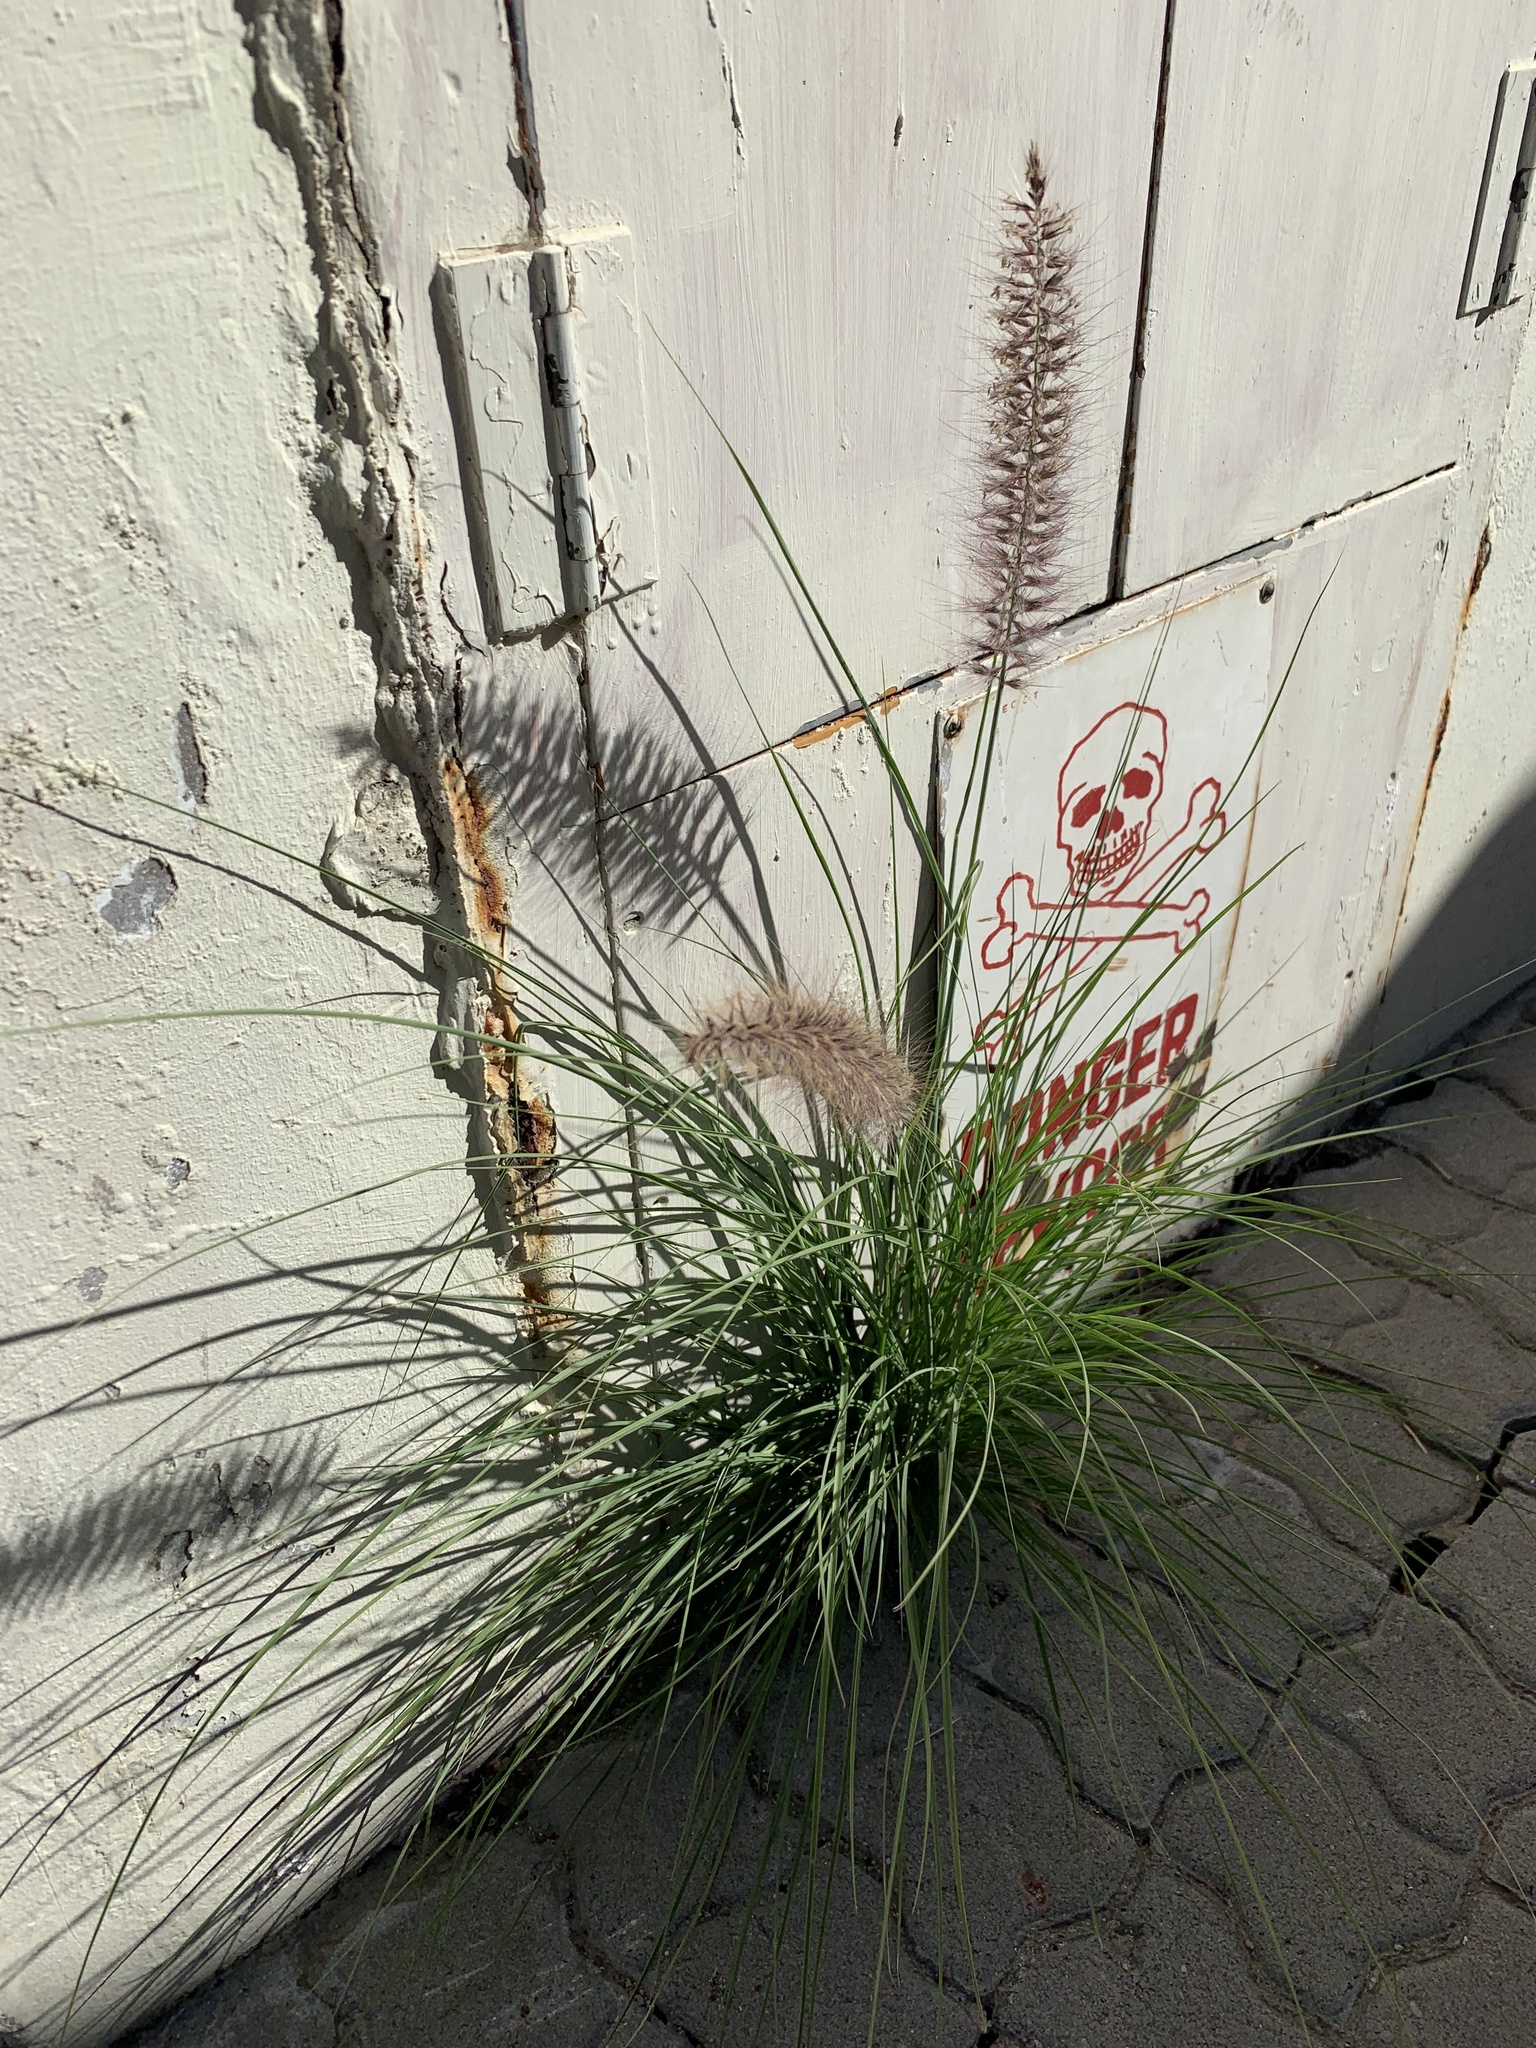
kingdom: Plantae
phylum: Tracheophyta
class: Liliopsida
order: Poales
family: Poaceae
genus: Cenchrus
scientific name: Cenchrus setaceus
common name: Crimson fountaingrass
